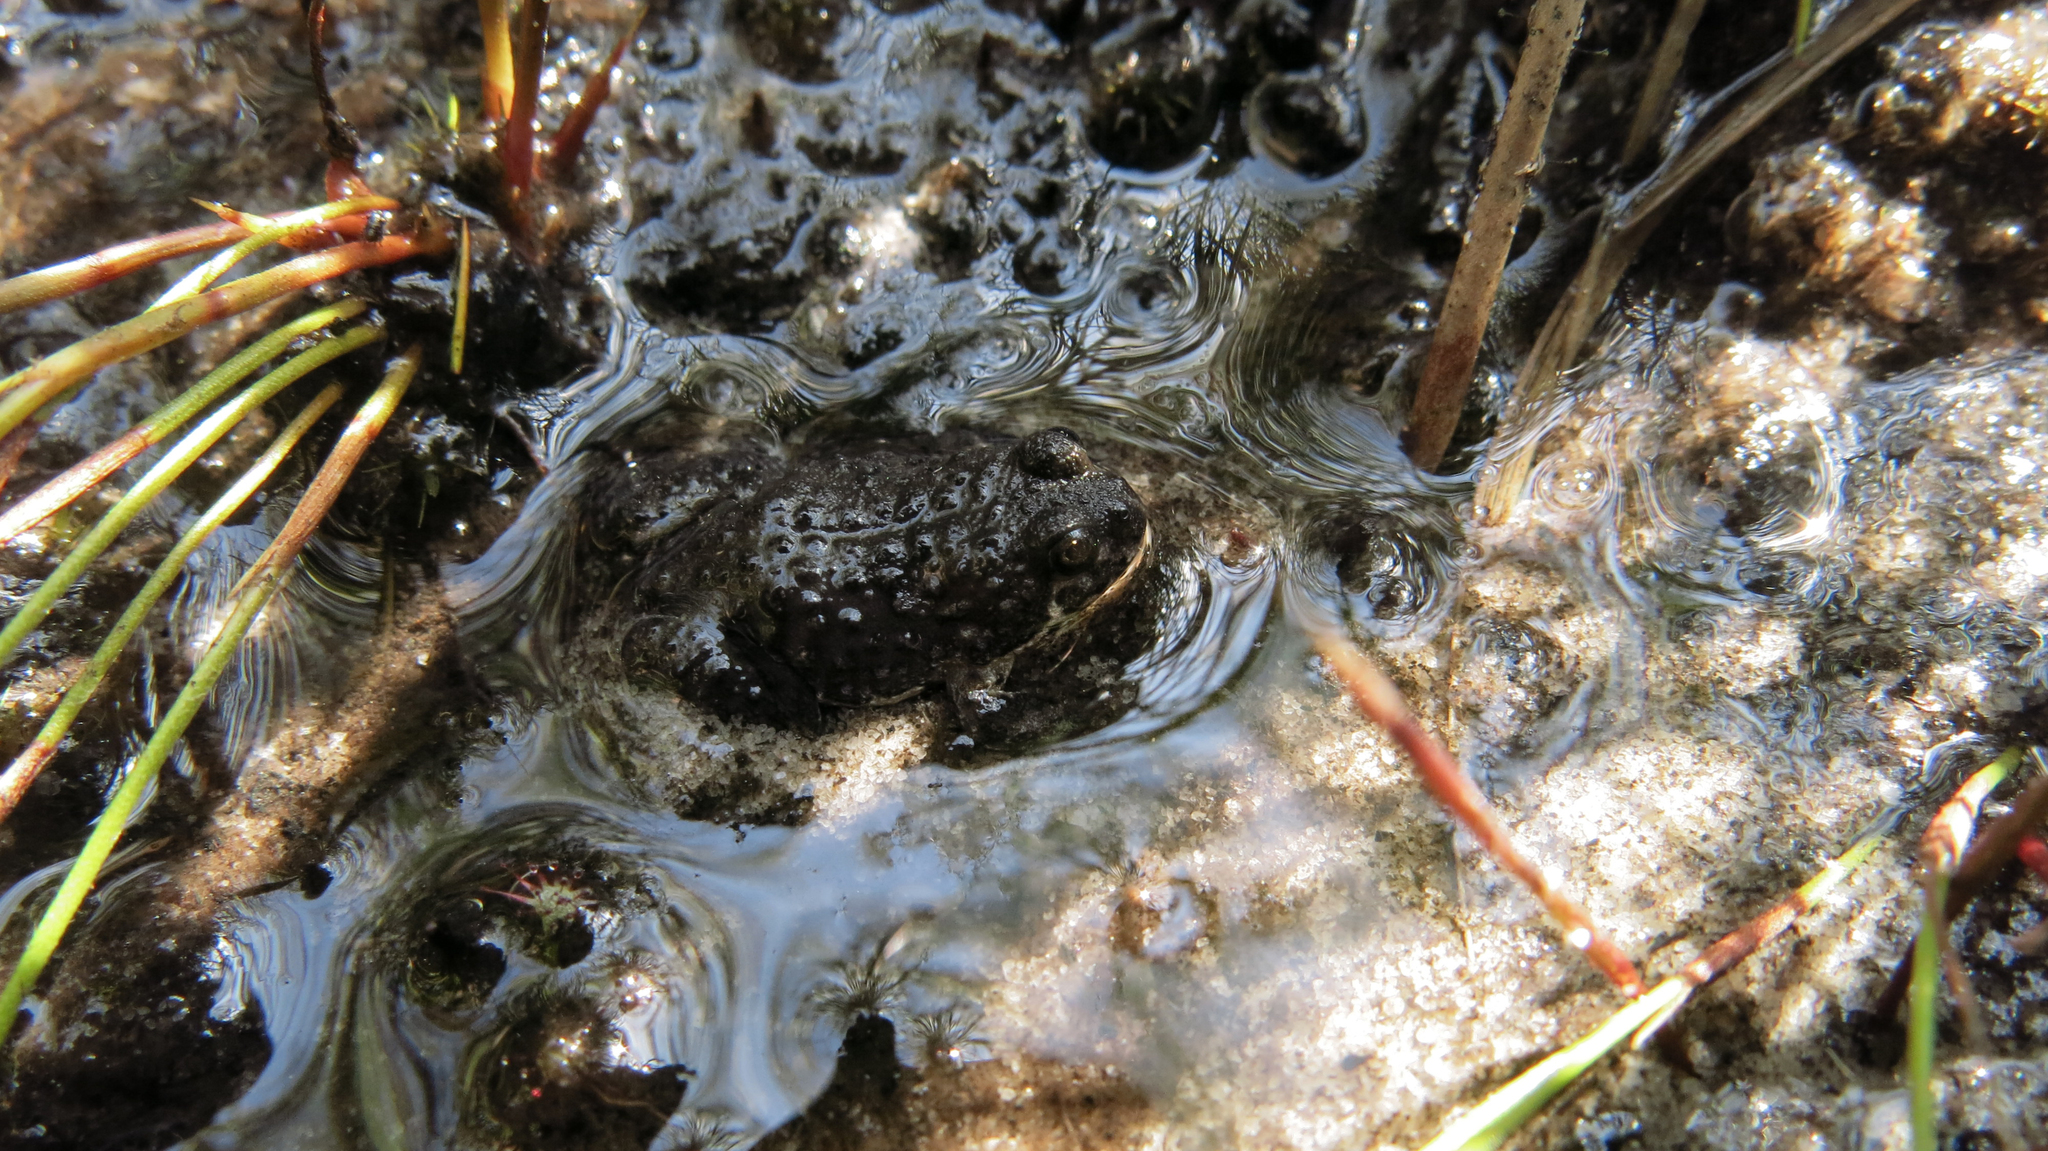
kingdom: Animalia
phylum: Chordata
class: Amphibia
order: Anura
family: Pyxicephalidae
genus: Poyntonia
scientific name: Poyntonia paludicola
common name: Montane marsh frog
